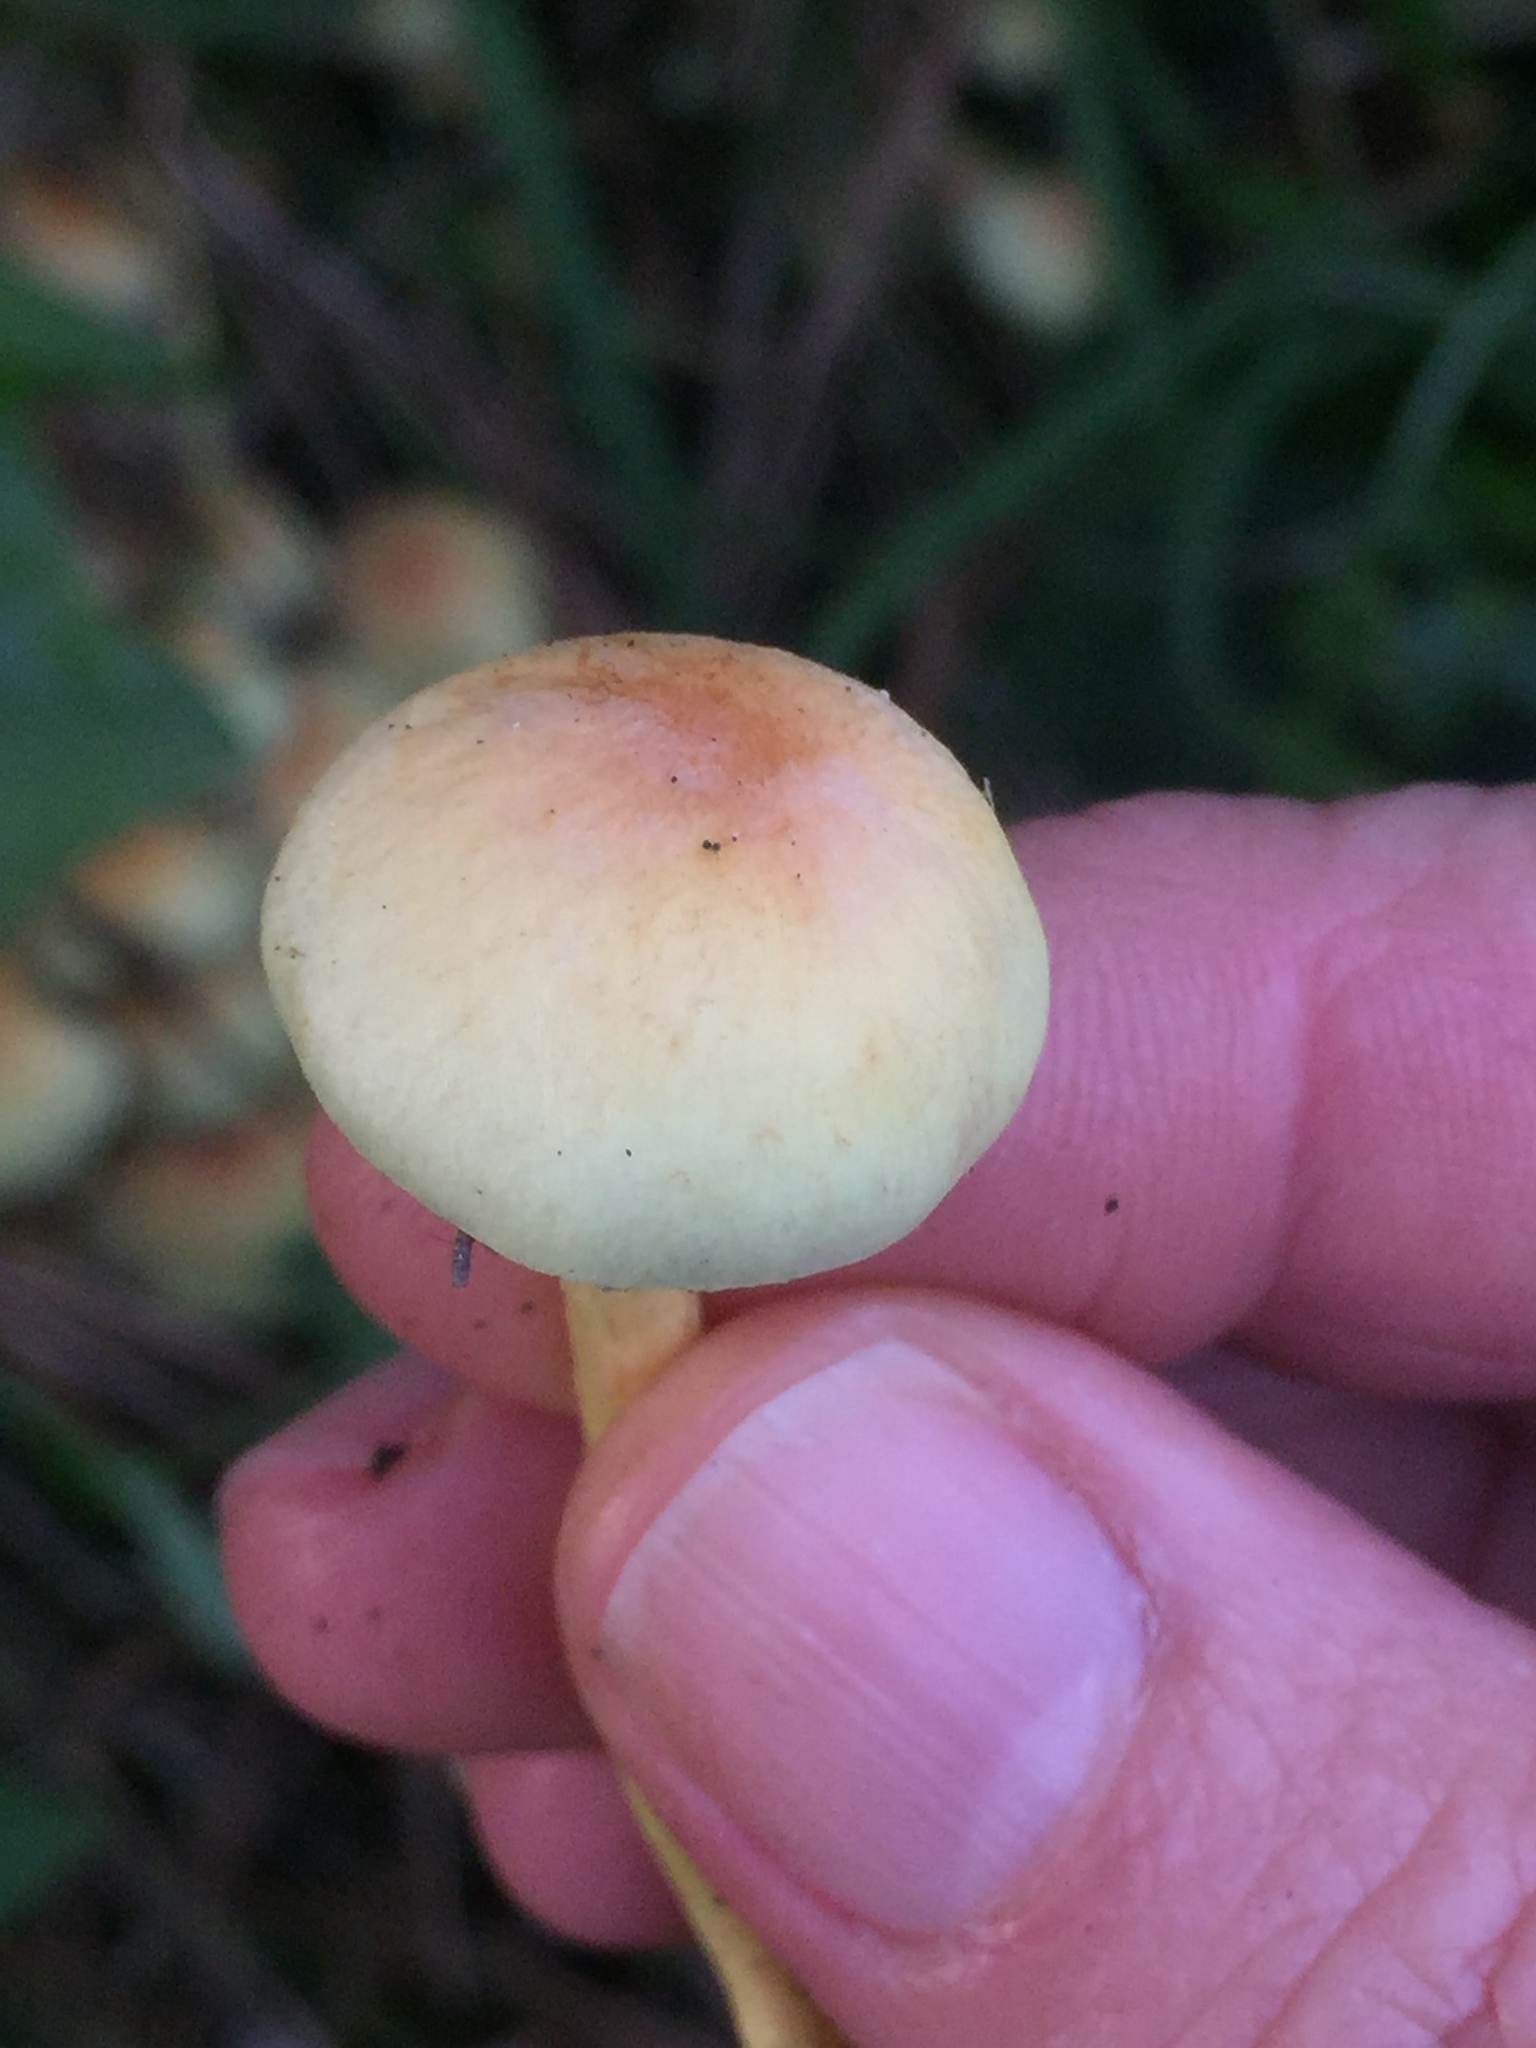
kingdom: Fungi
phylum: Basidiomycota
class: Agaricomycetes
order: Agaricales
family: Strophariaceae
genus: Hypholoma
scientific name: Hypholoma fasciculare
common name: Sulphur tuft
